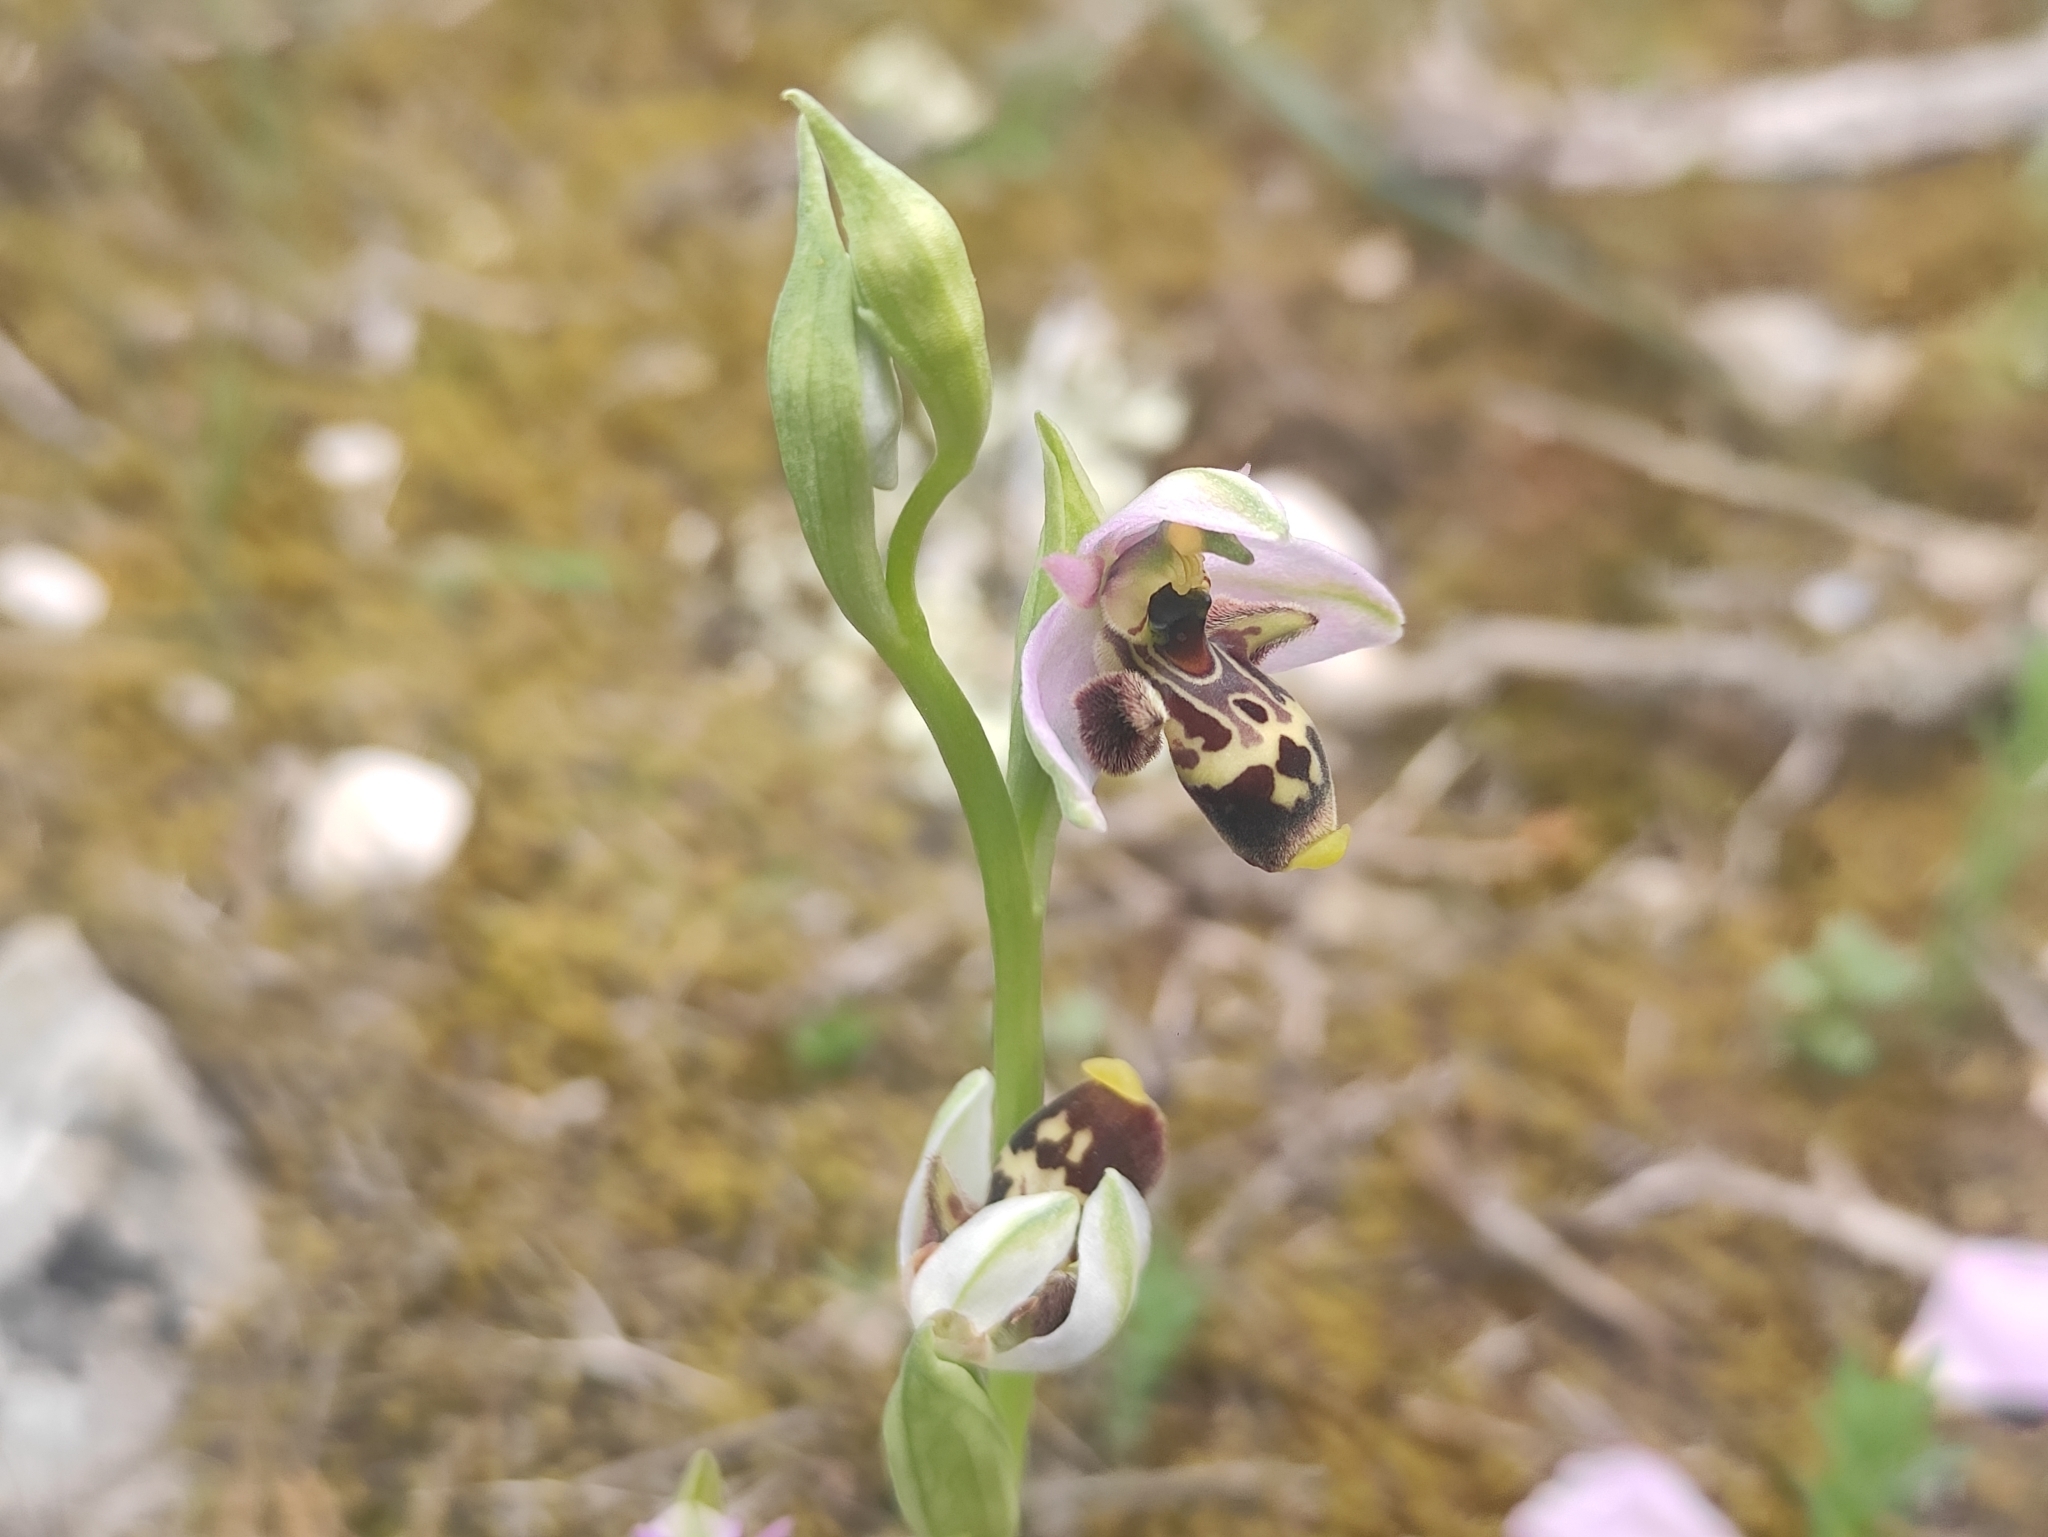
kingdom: Plantae
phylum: Tracheophyta
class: Liliopsida
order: Asparagales
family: Orchidaceae
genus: Ophrys
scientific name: Ophrys scolopax
